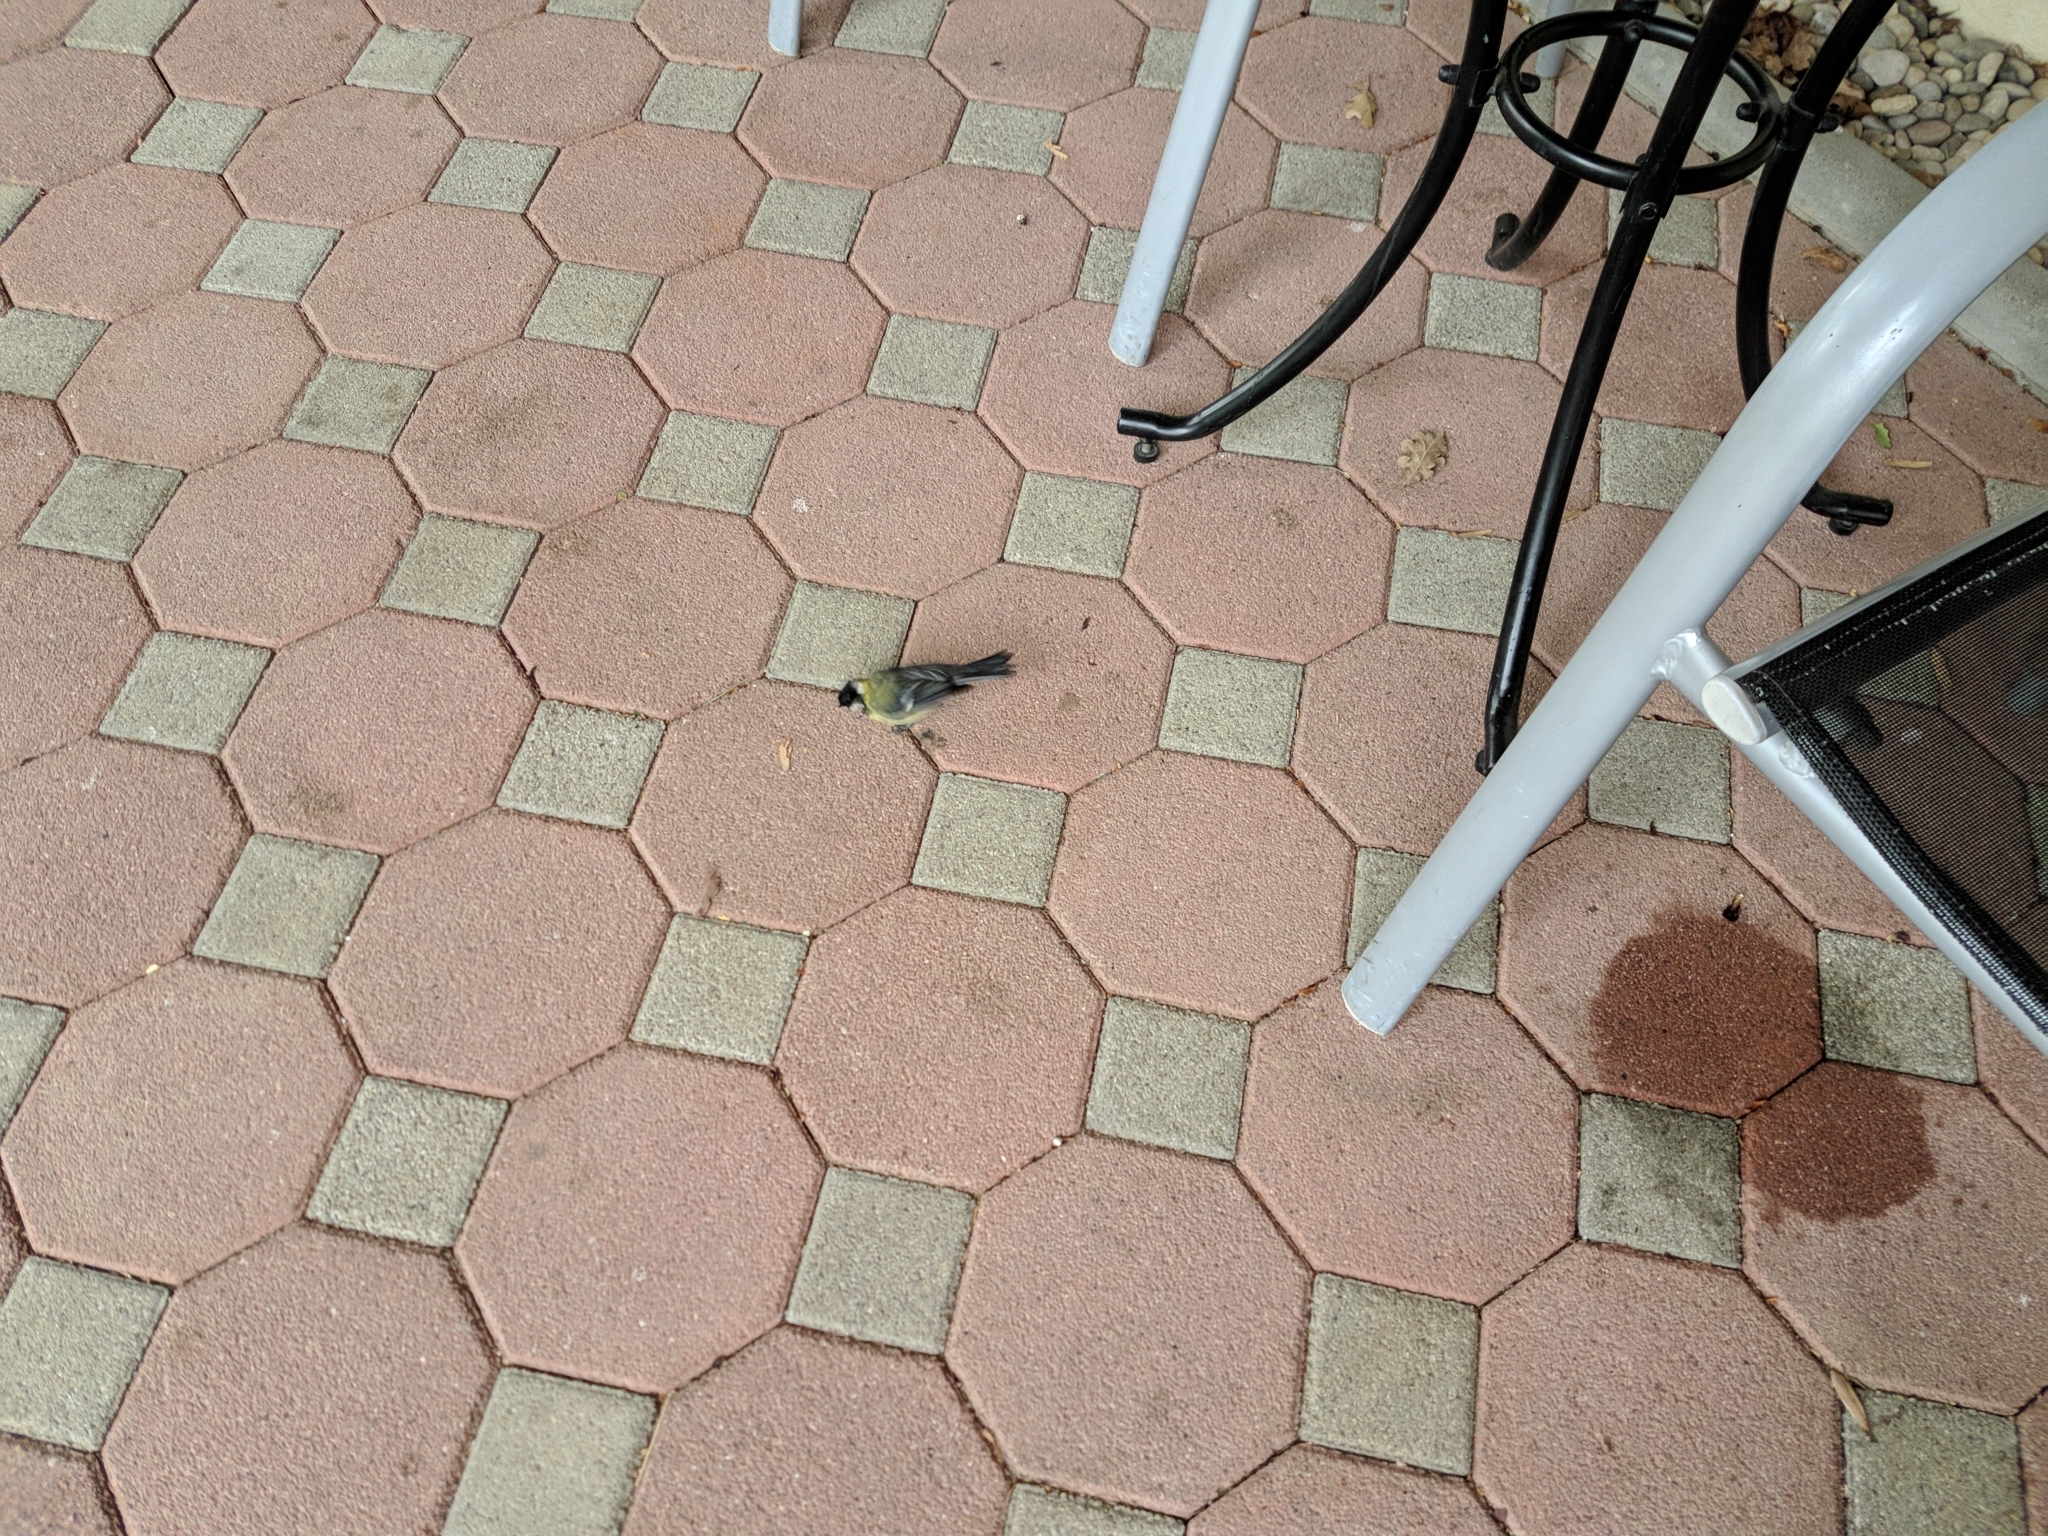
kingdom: Animalia
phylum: Chordata
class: Aves
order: Passeriformes
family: Paridae
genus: Parus
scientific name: Parus major
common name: Great tit
